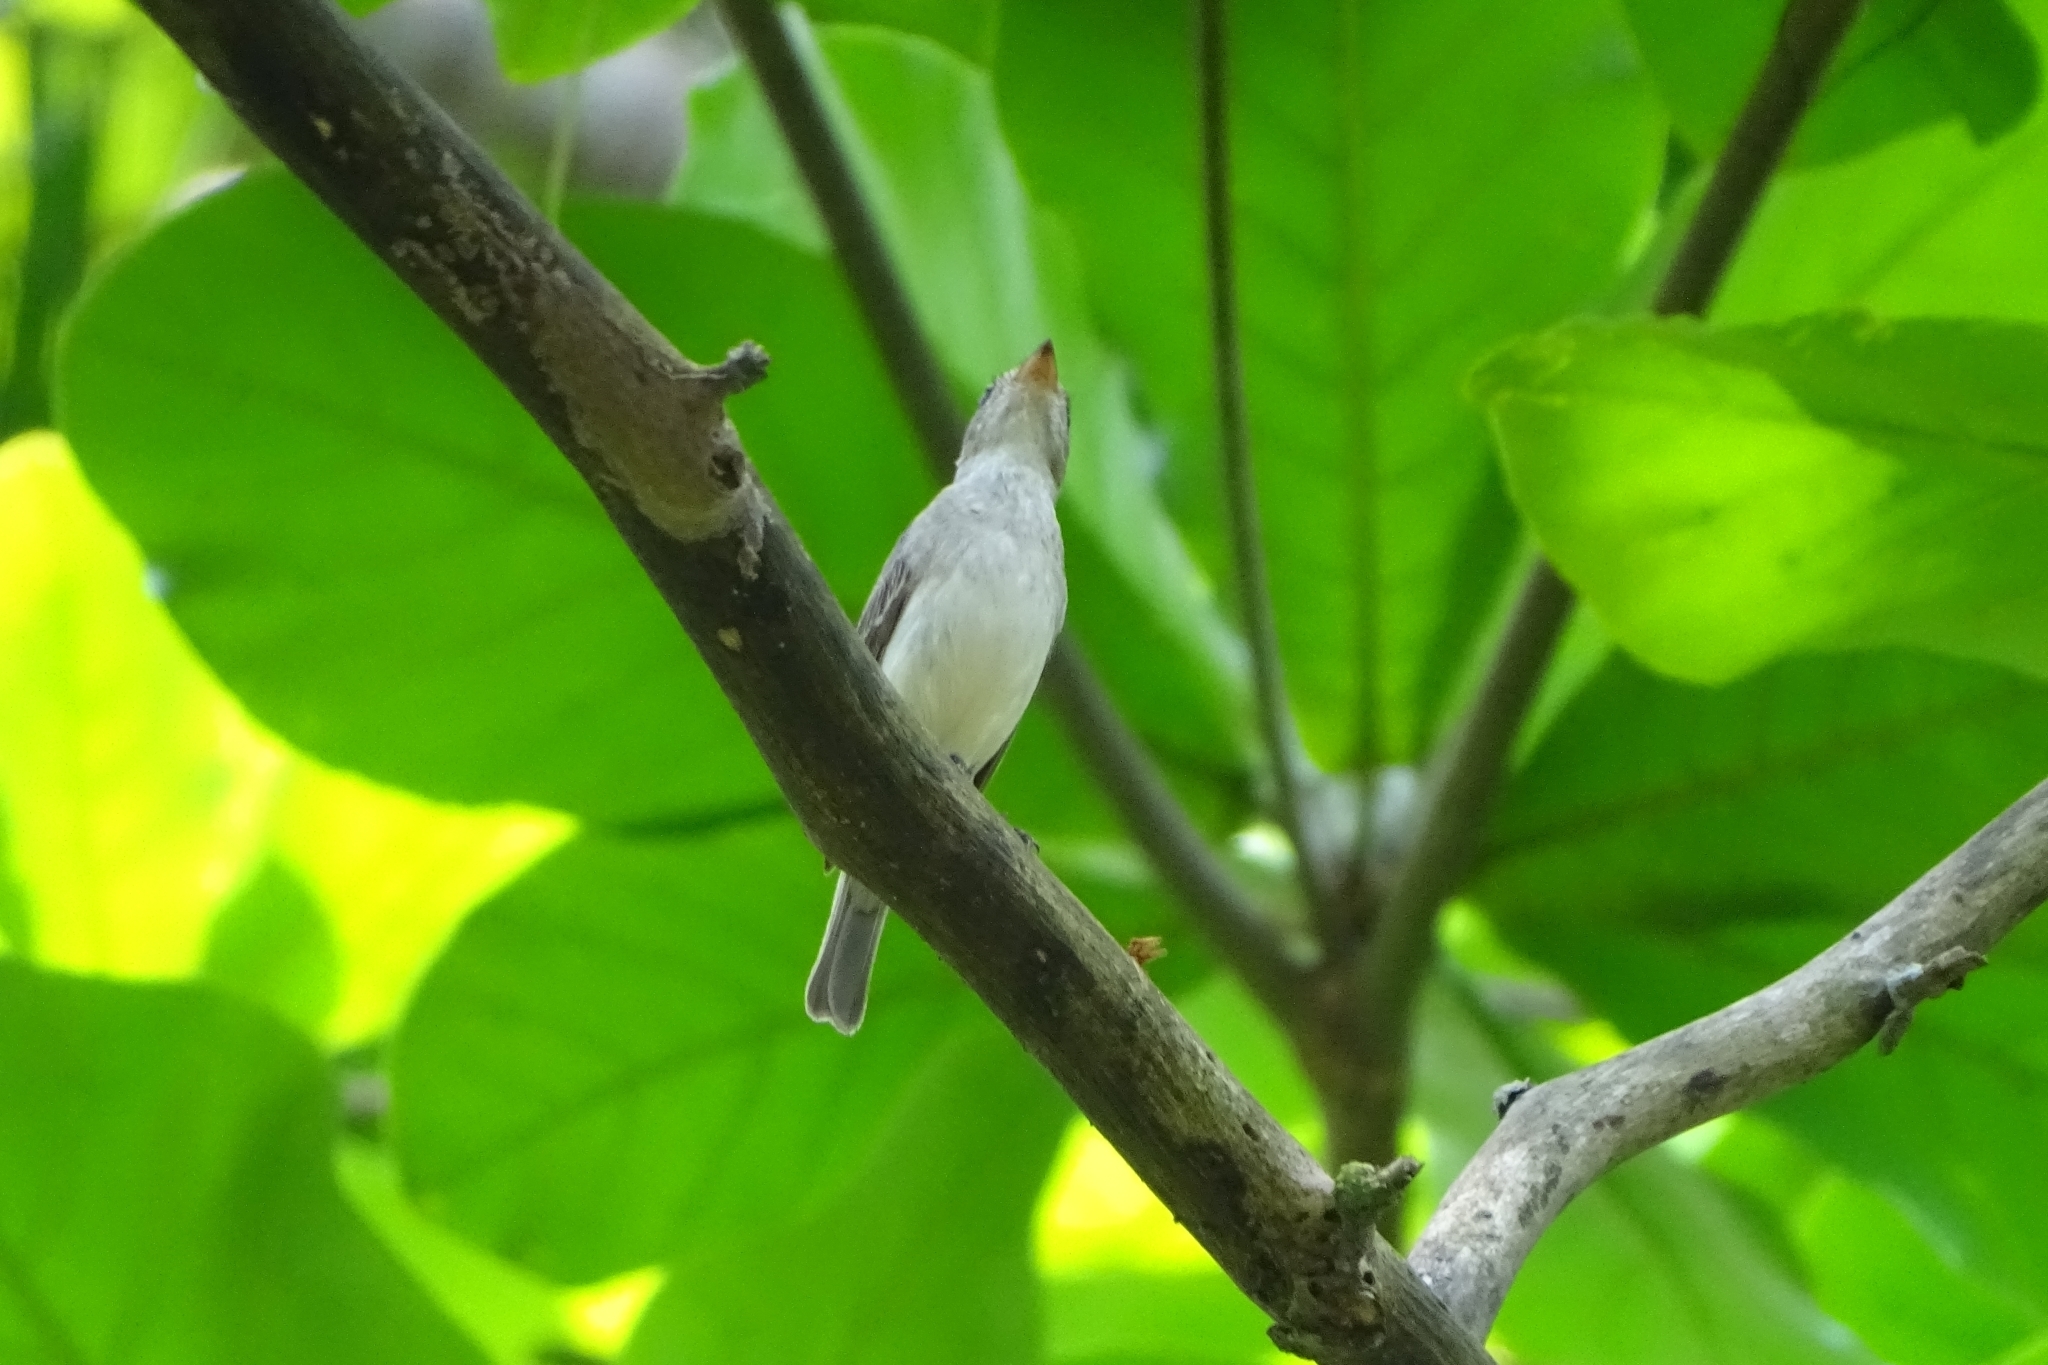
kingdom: Animalia
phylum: Chordata
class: Aves
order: Passeriformes
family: Muscicapidae
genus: Muscicapa
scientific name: Muscicapa latirostris
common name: Asian brown flycatcher
